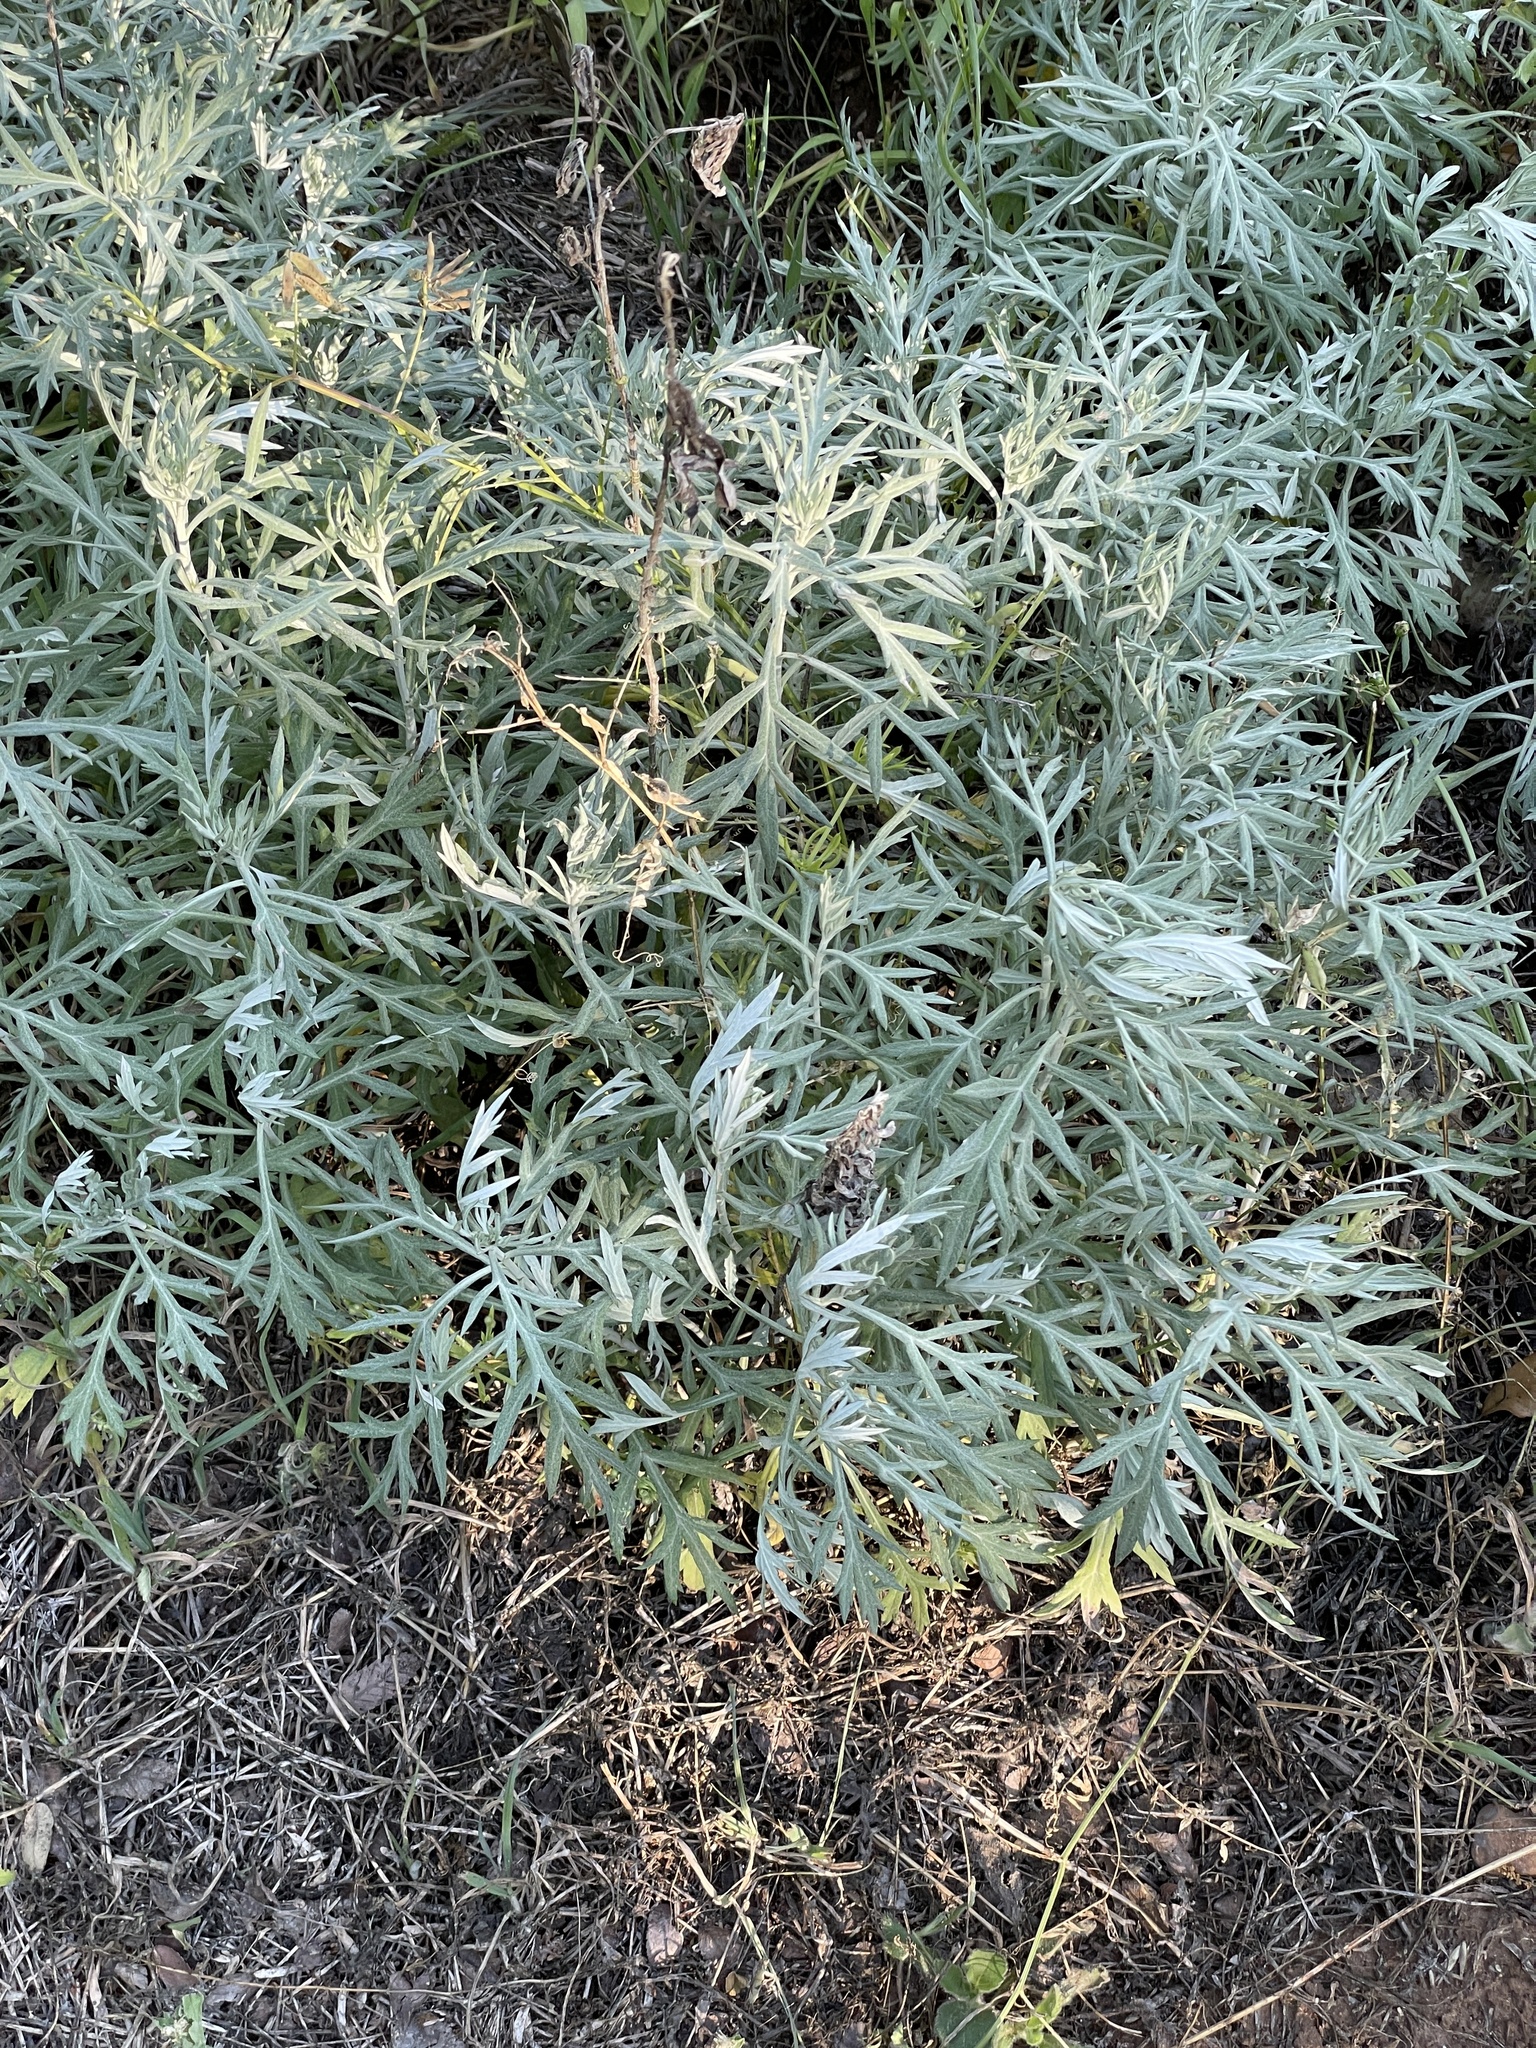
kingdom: Plantae
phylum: Tracheophyta
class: Magnoliopsida
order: Asterales
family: Asteraceae
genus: Artemisia
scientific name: Artemisia ludoviciana
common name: Western mugwort
